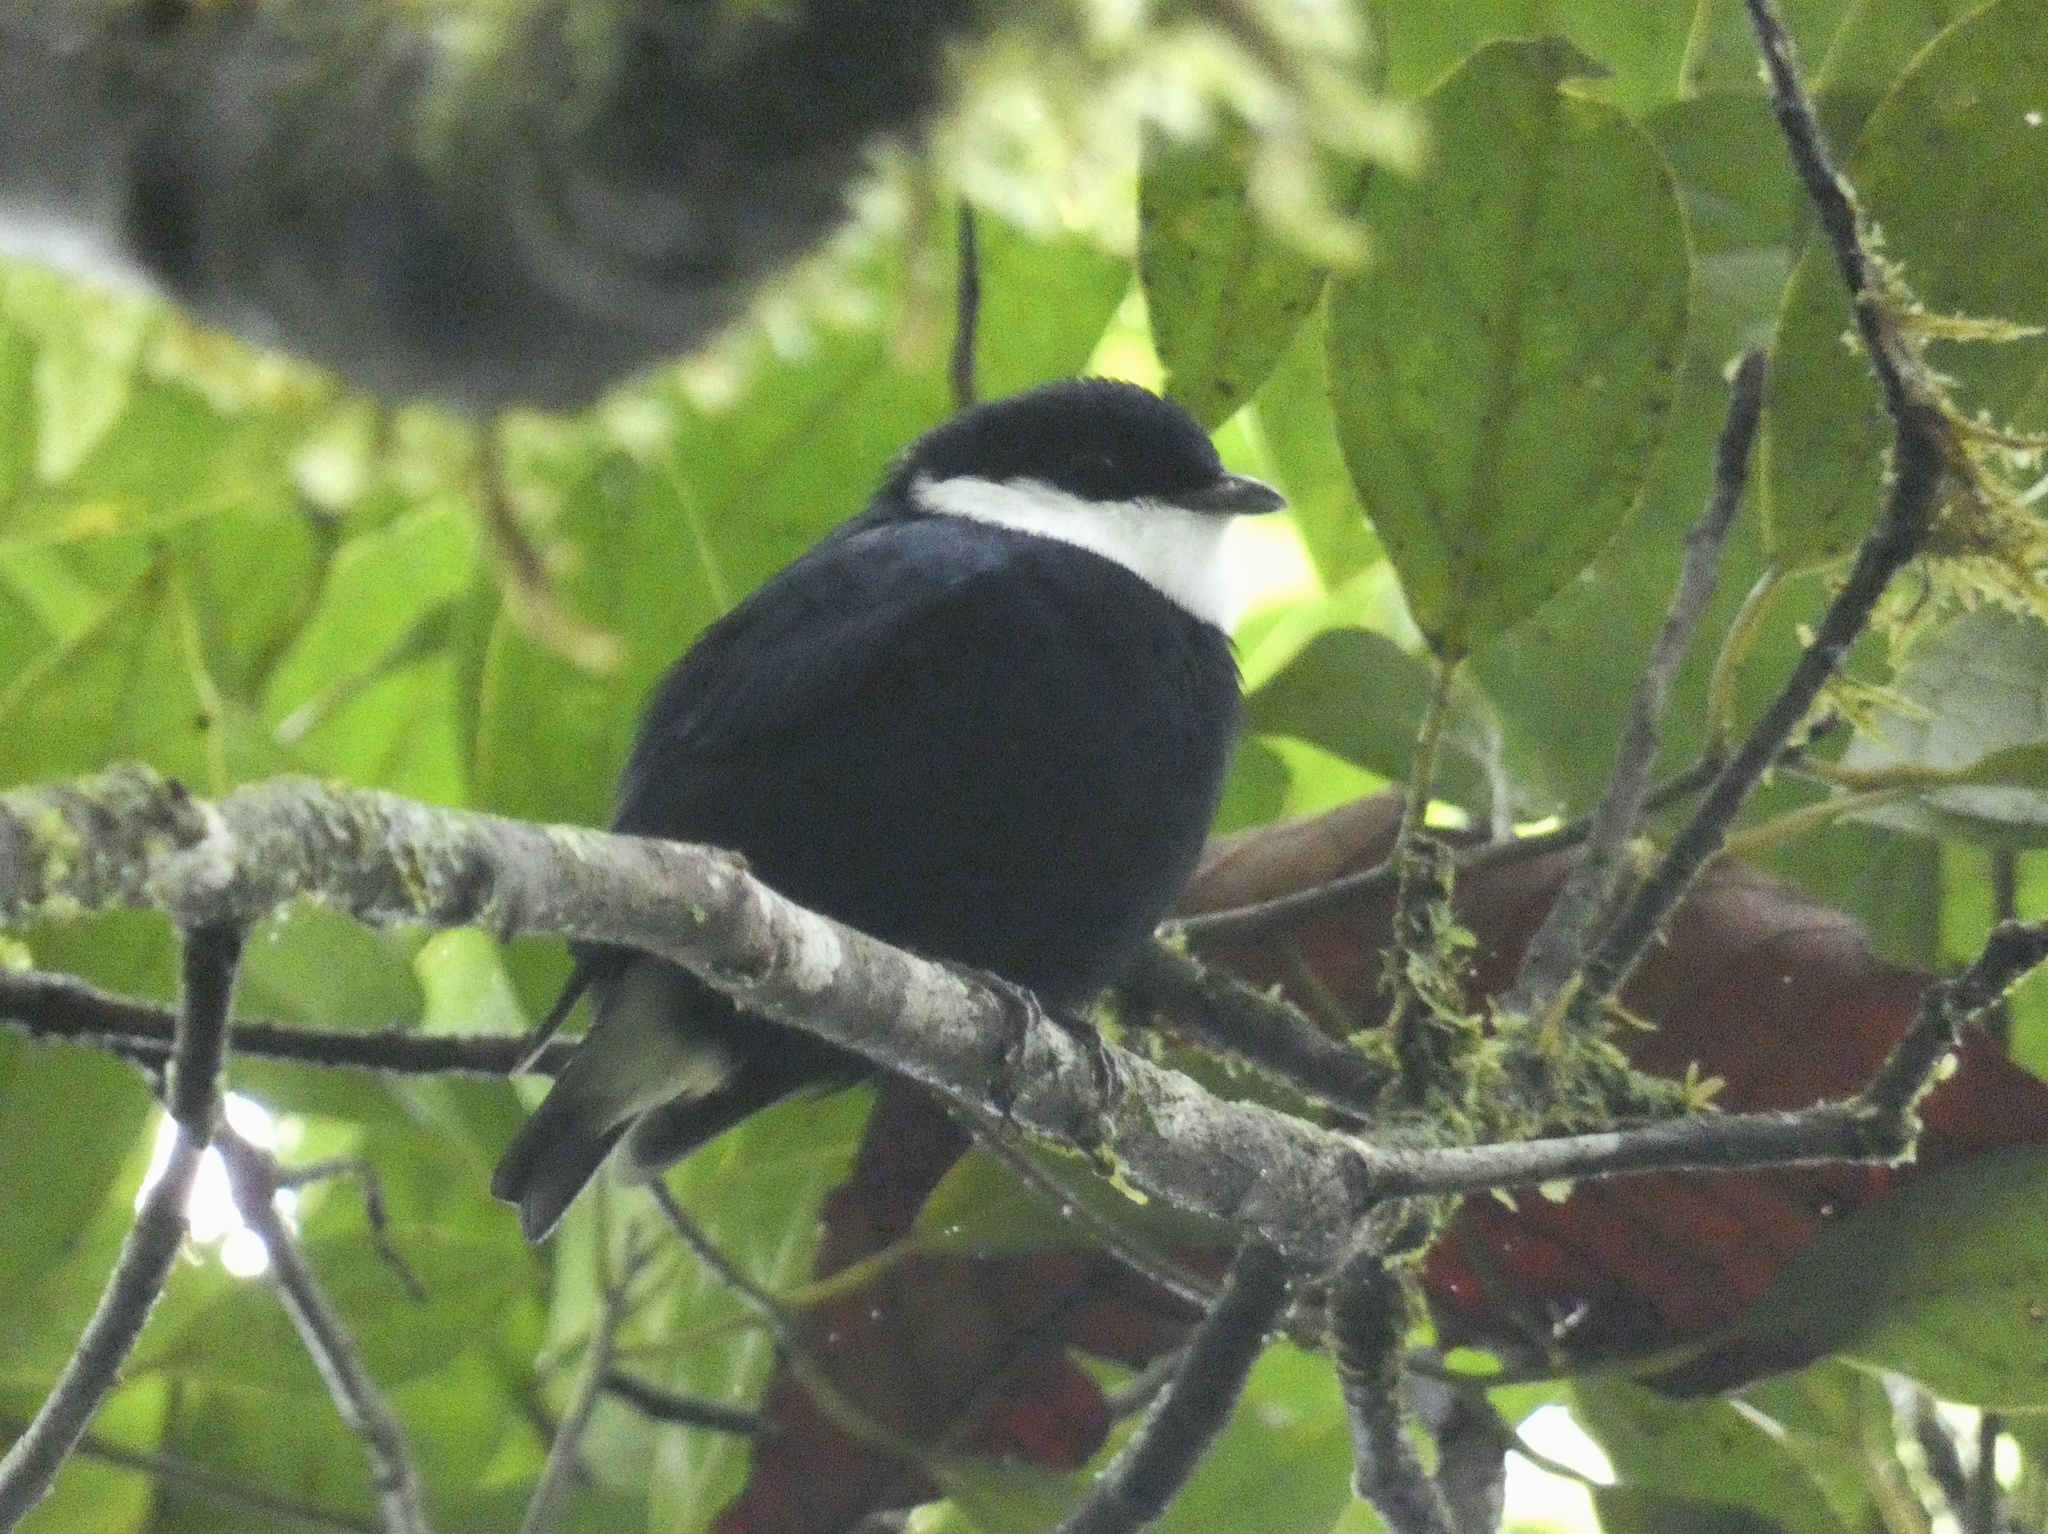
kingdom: Animalia
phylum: Chordata
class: Aves
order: Passeriformes
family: Pipridae
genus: Corapipo
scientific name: Corapipo altera
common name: White-ruffed manakin
